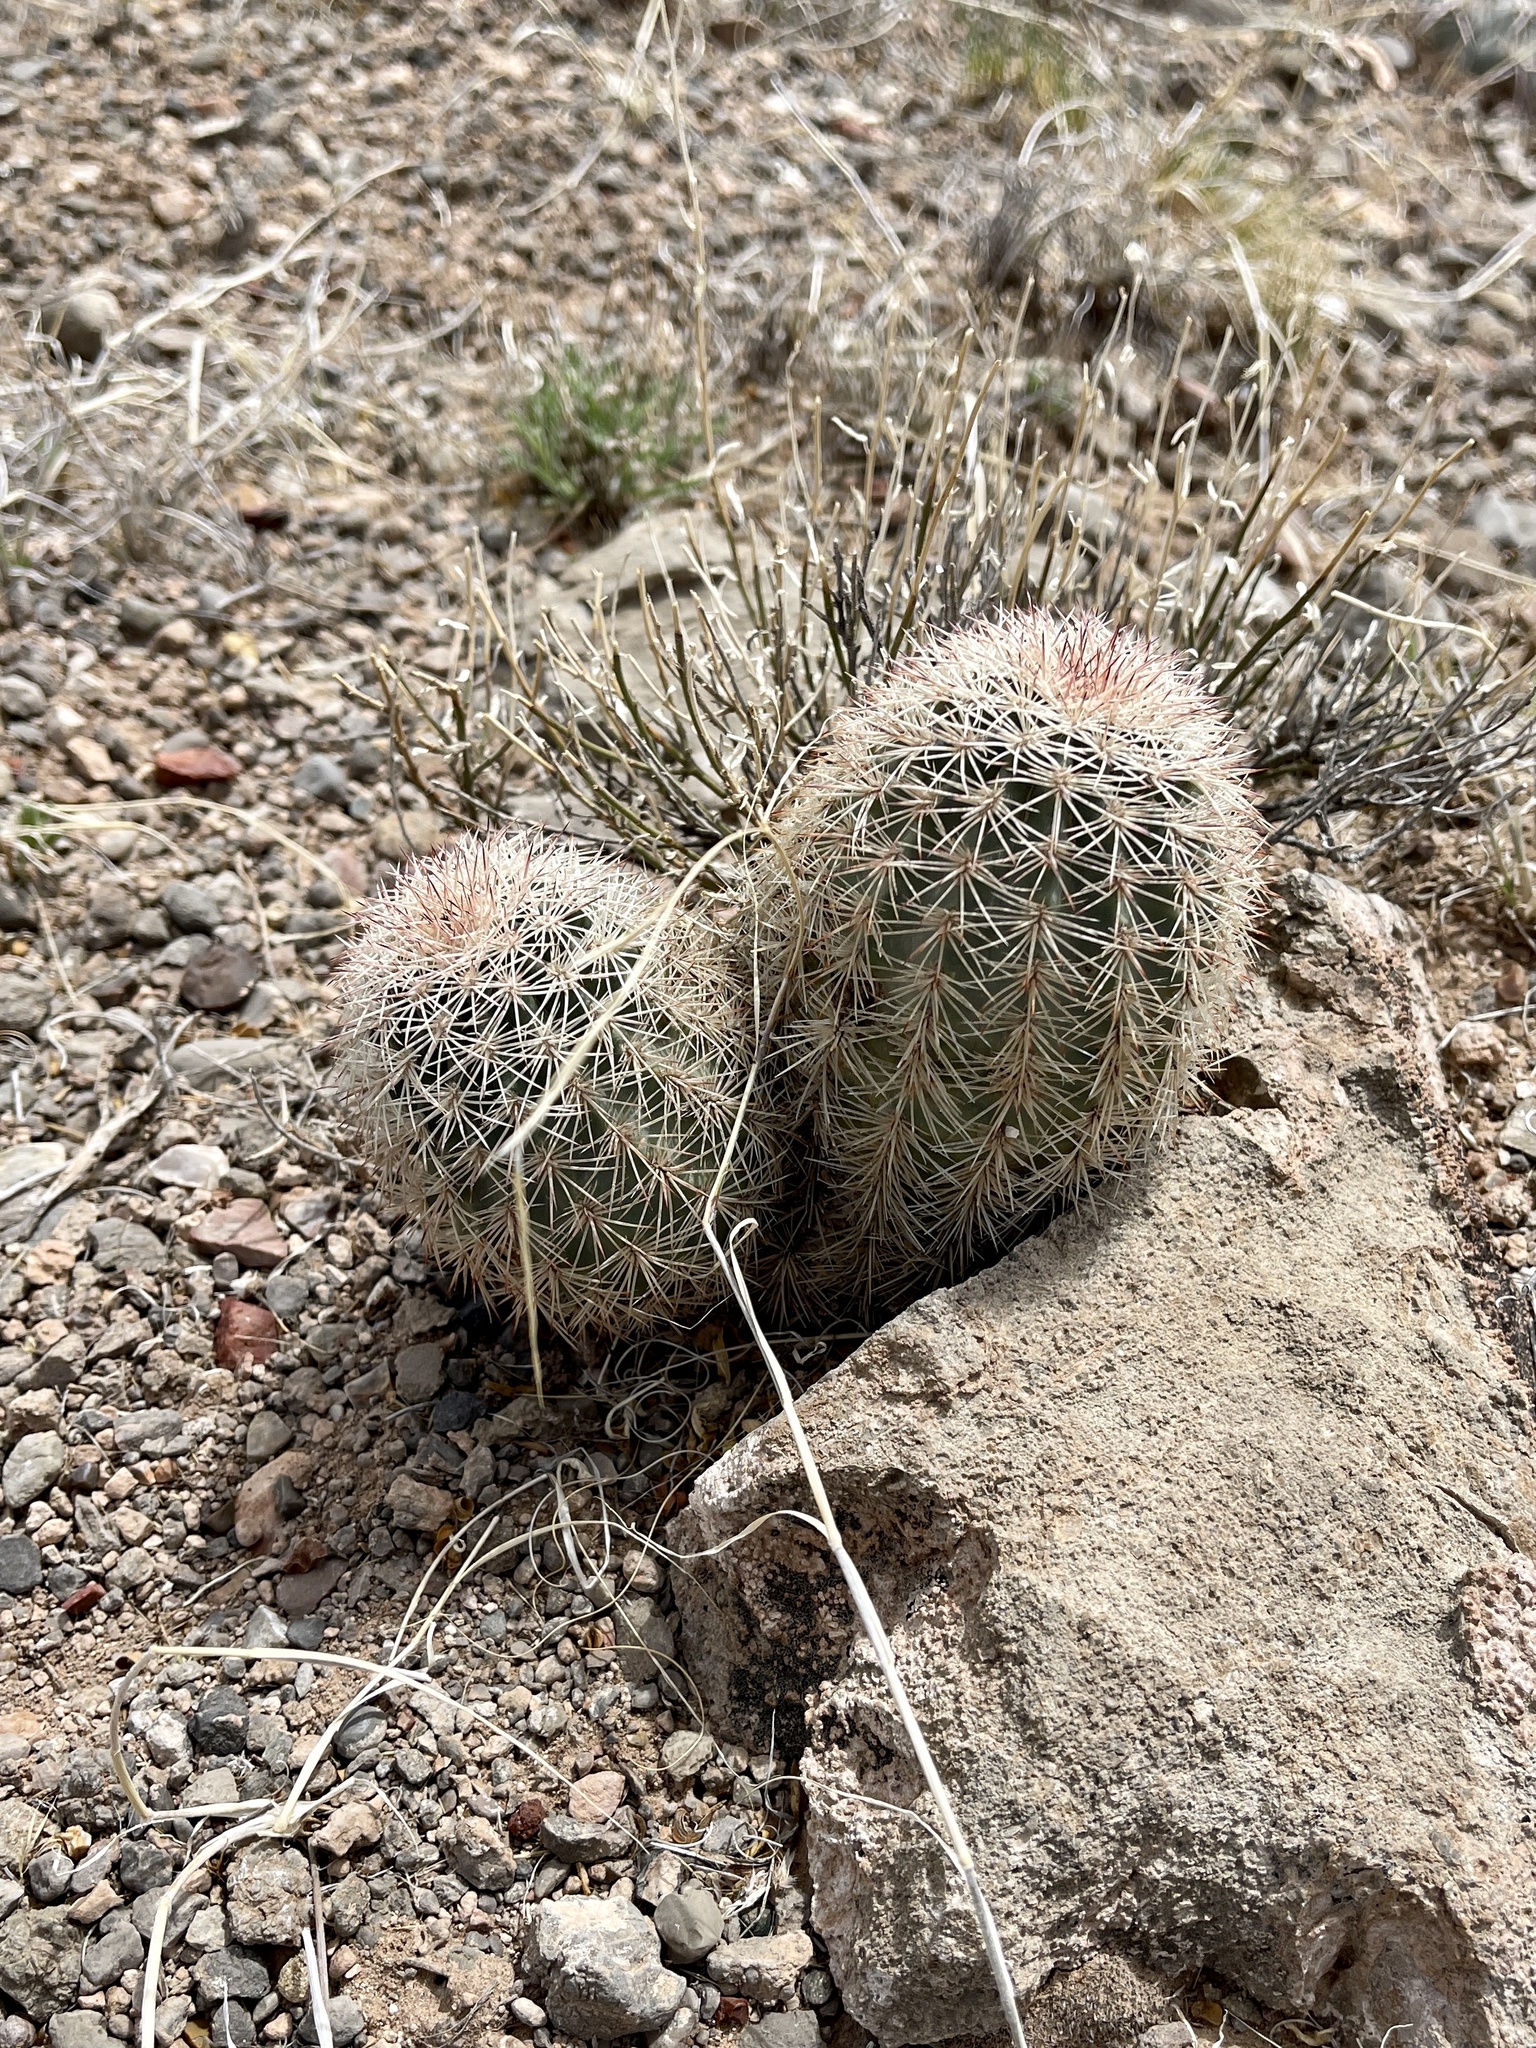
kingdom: Plantae
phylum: Tracheophyta
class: Magnoliopsida
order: Caryophyllales
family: Cactaceae
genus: Echinocereus
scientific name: Echinocereus roetteri
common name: Lloyd's hedgehog cactus
